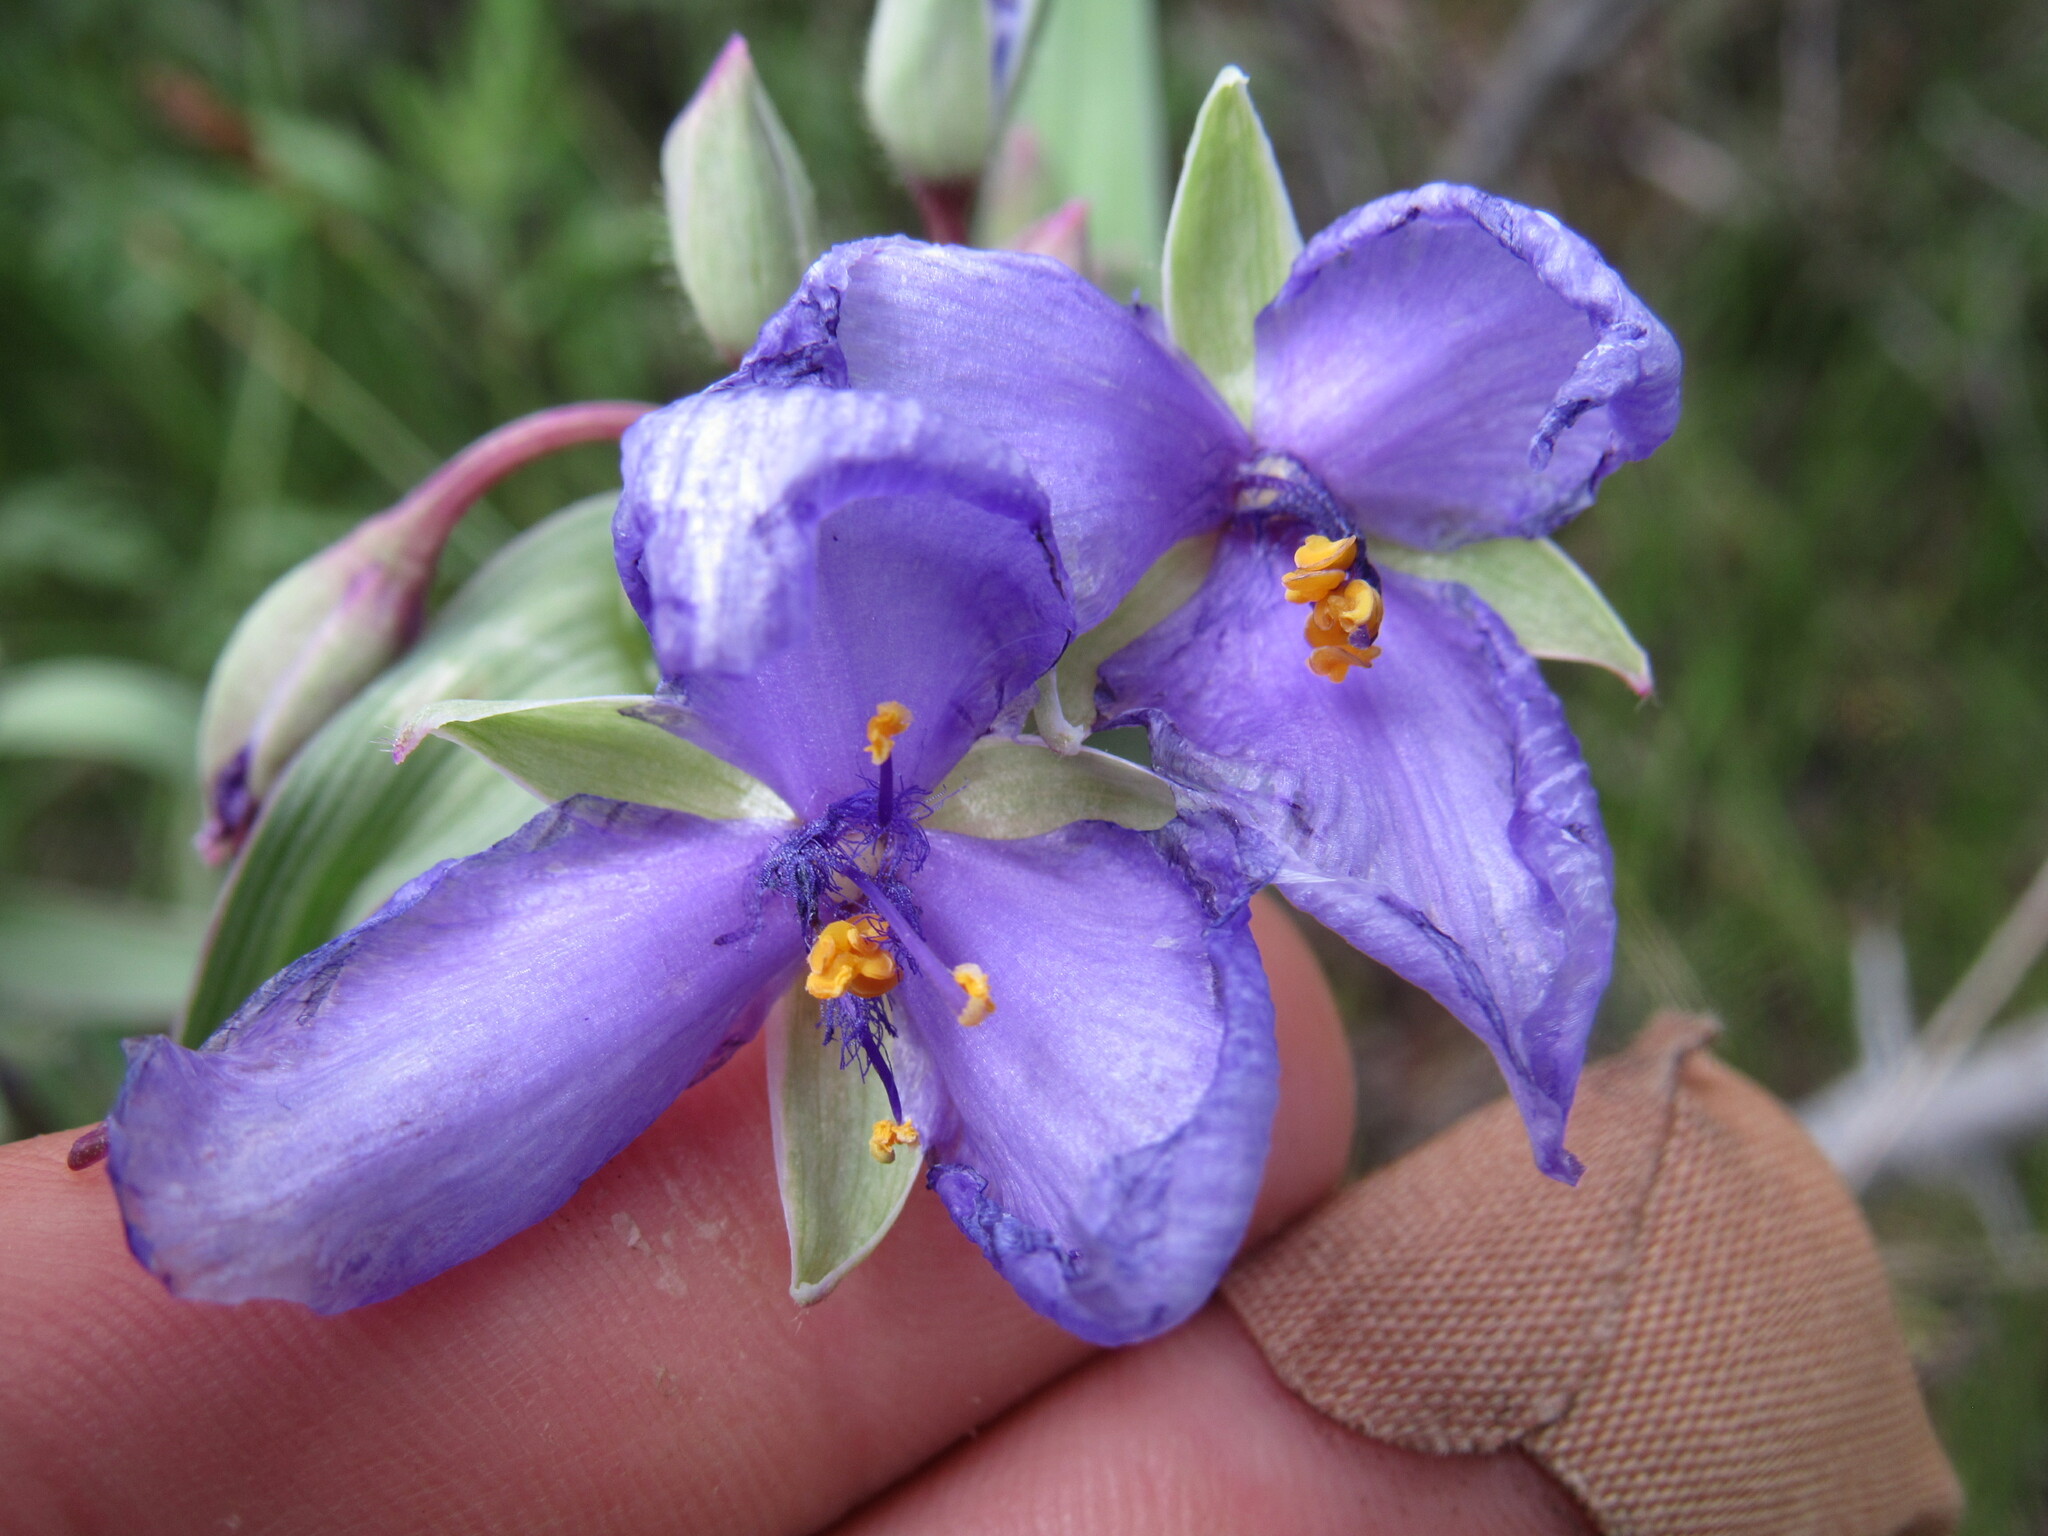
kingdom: Plantae
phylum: Tracheophyta
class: Liliopsida
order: Commelinales
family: Commelinaceae
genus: Tradescantia
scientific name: Tradescantia occidentalis
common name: Prairie spiderwort
